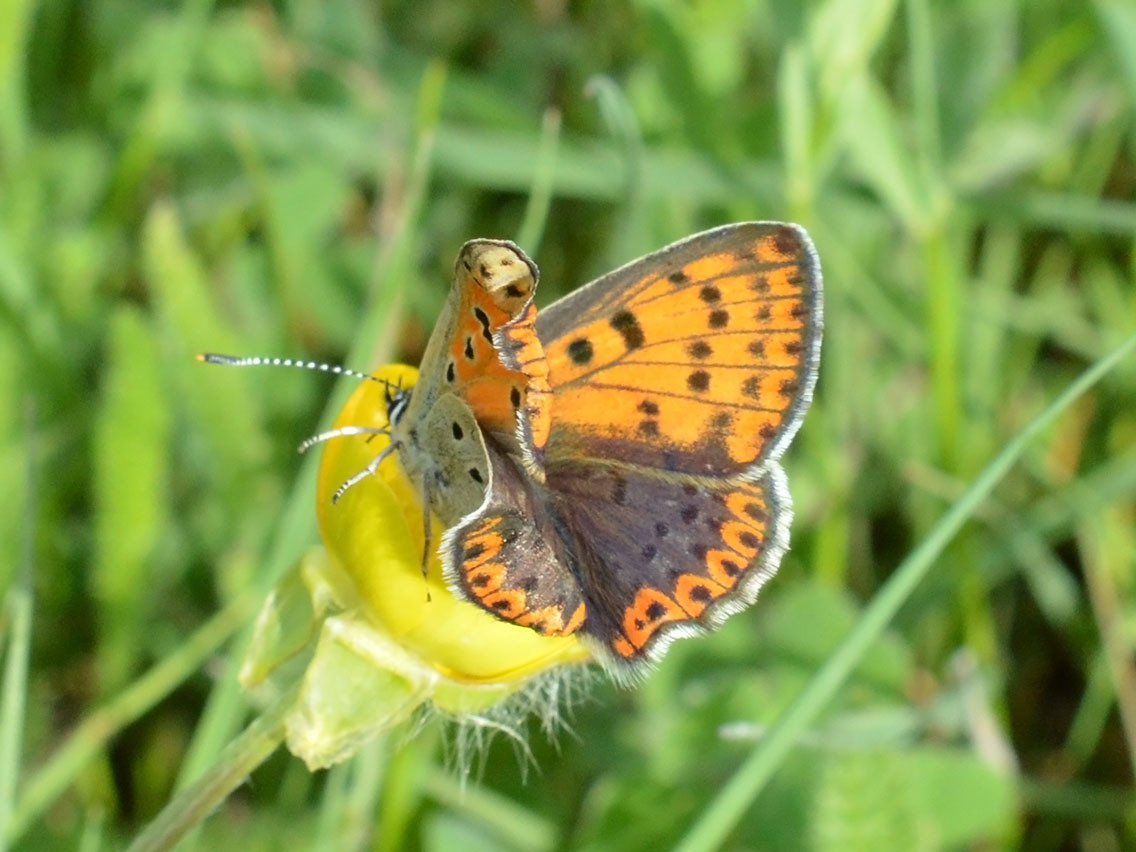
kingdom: Animalia
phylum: Arthropoda
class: Insecta
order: Lepidoptera
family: Lycaenidae
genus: Loweia
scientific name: Loweia tityrus
